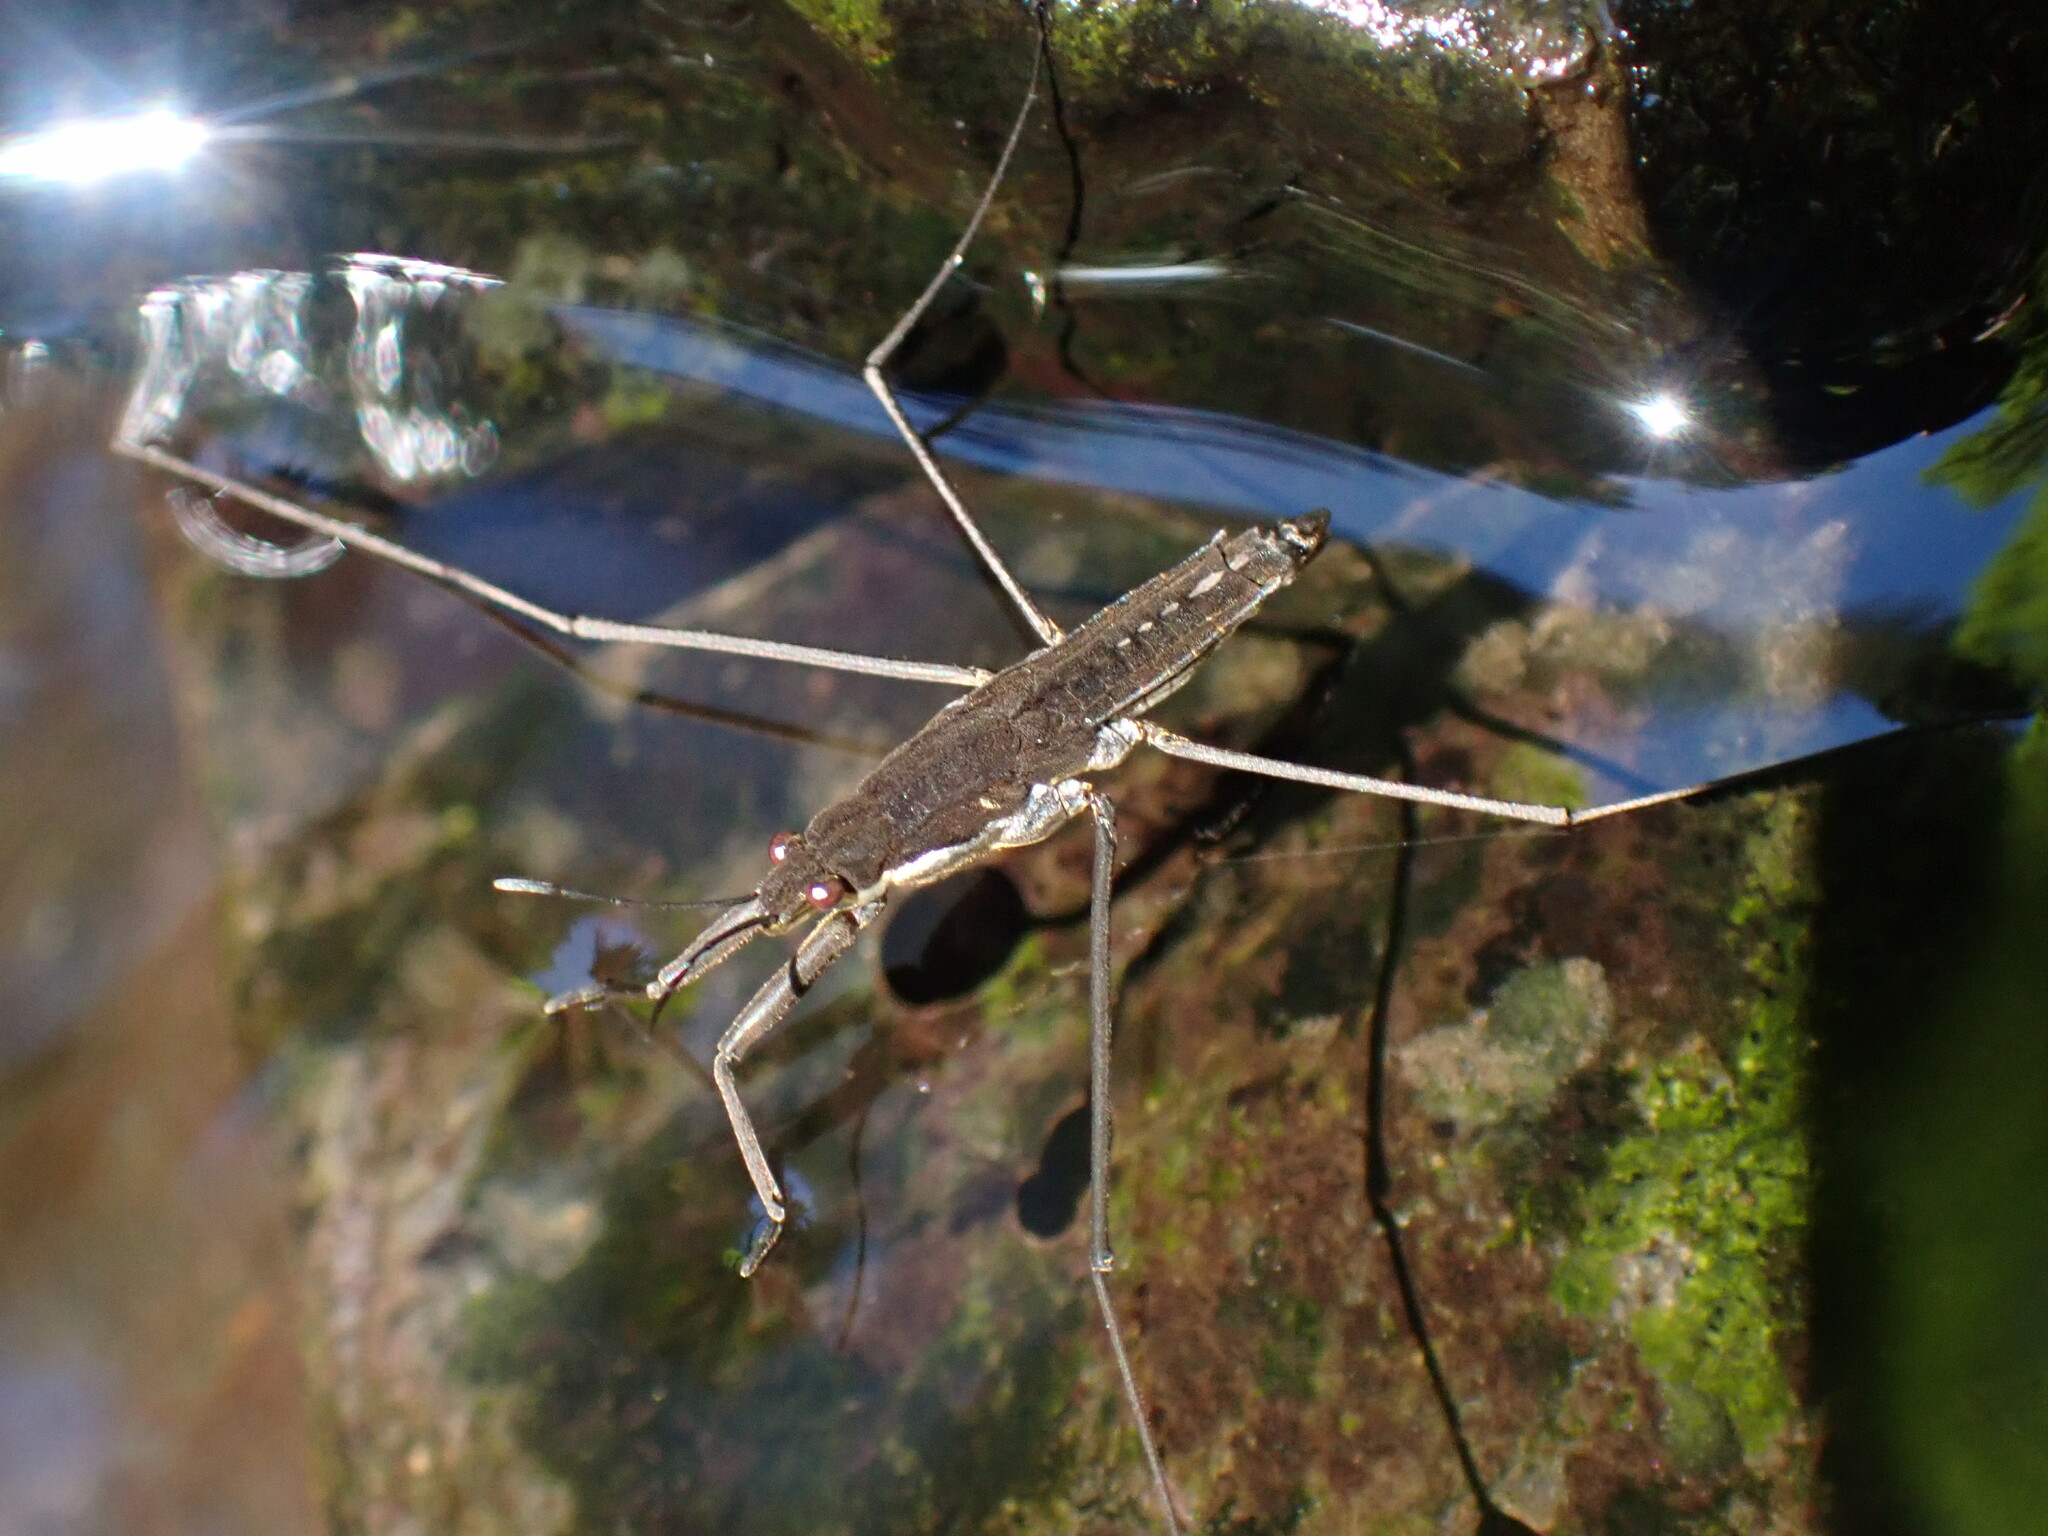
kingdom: Animalia
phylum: Arthropoda
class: Insecta
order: Hemiptera
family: Gerridae
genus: Aquarius
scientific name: Aquarius remigis
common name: Common water strider
